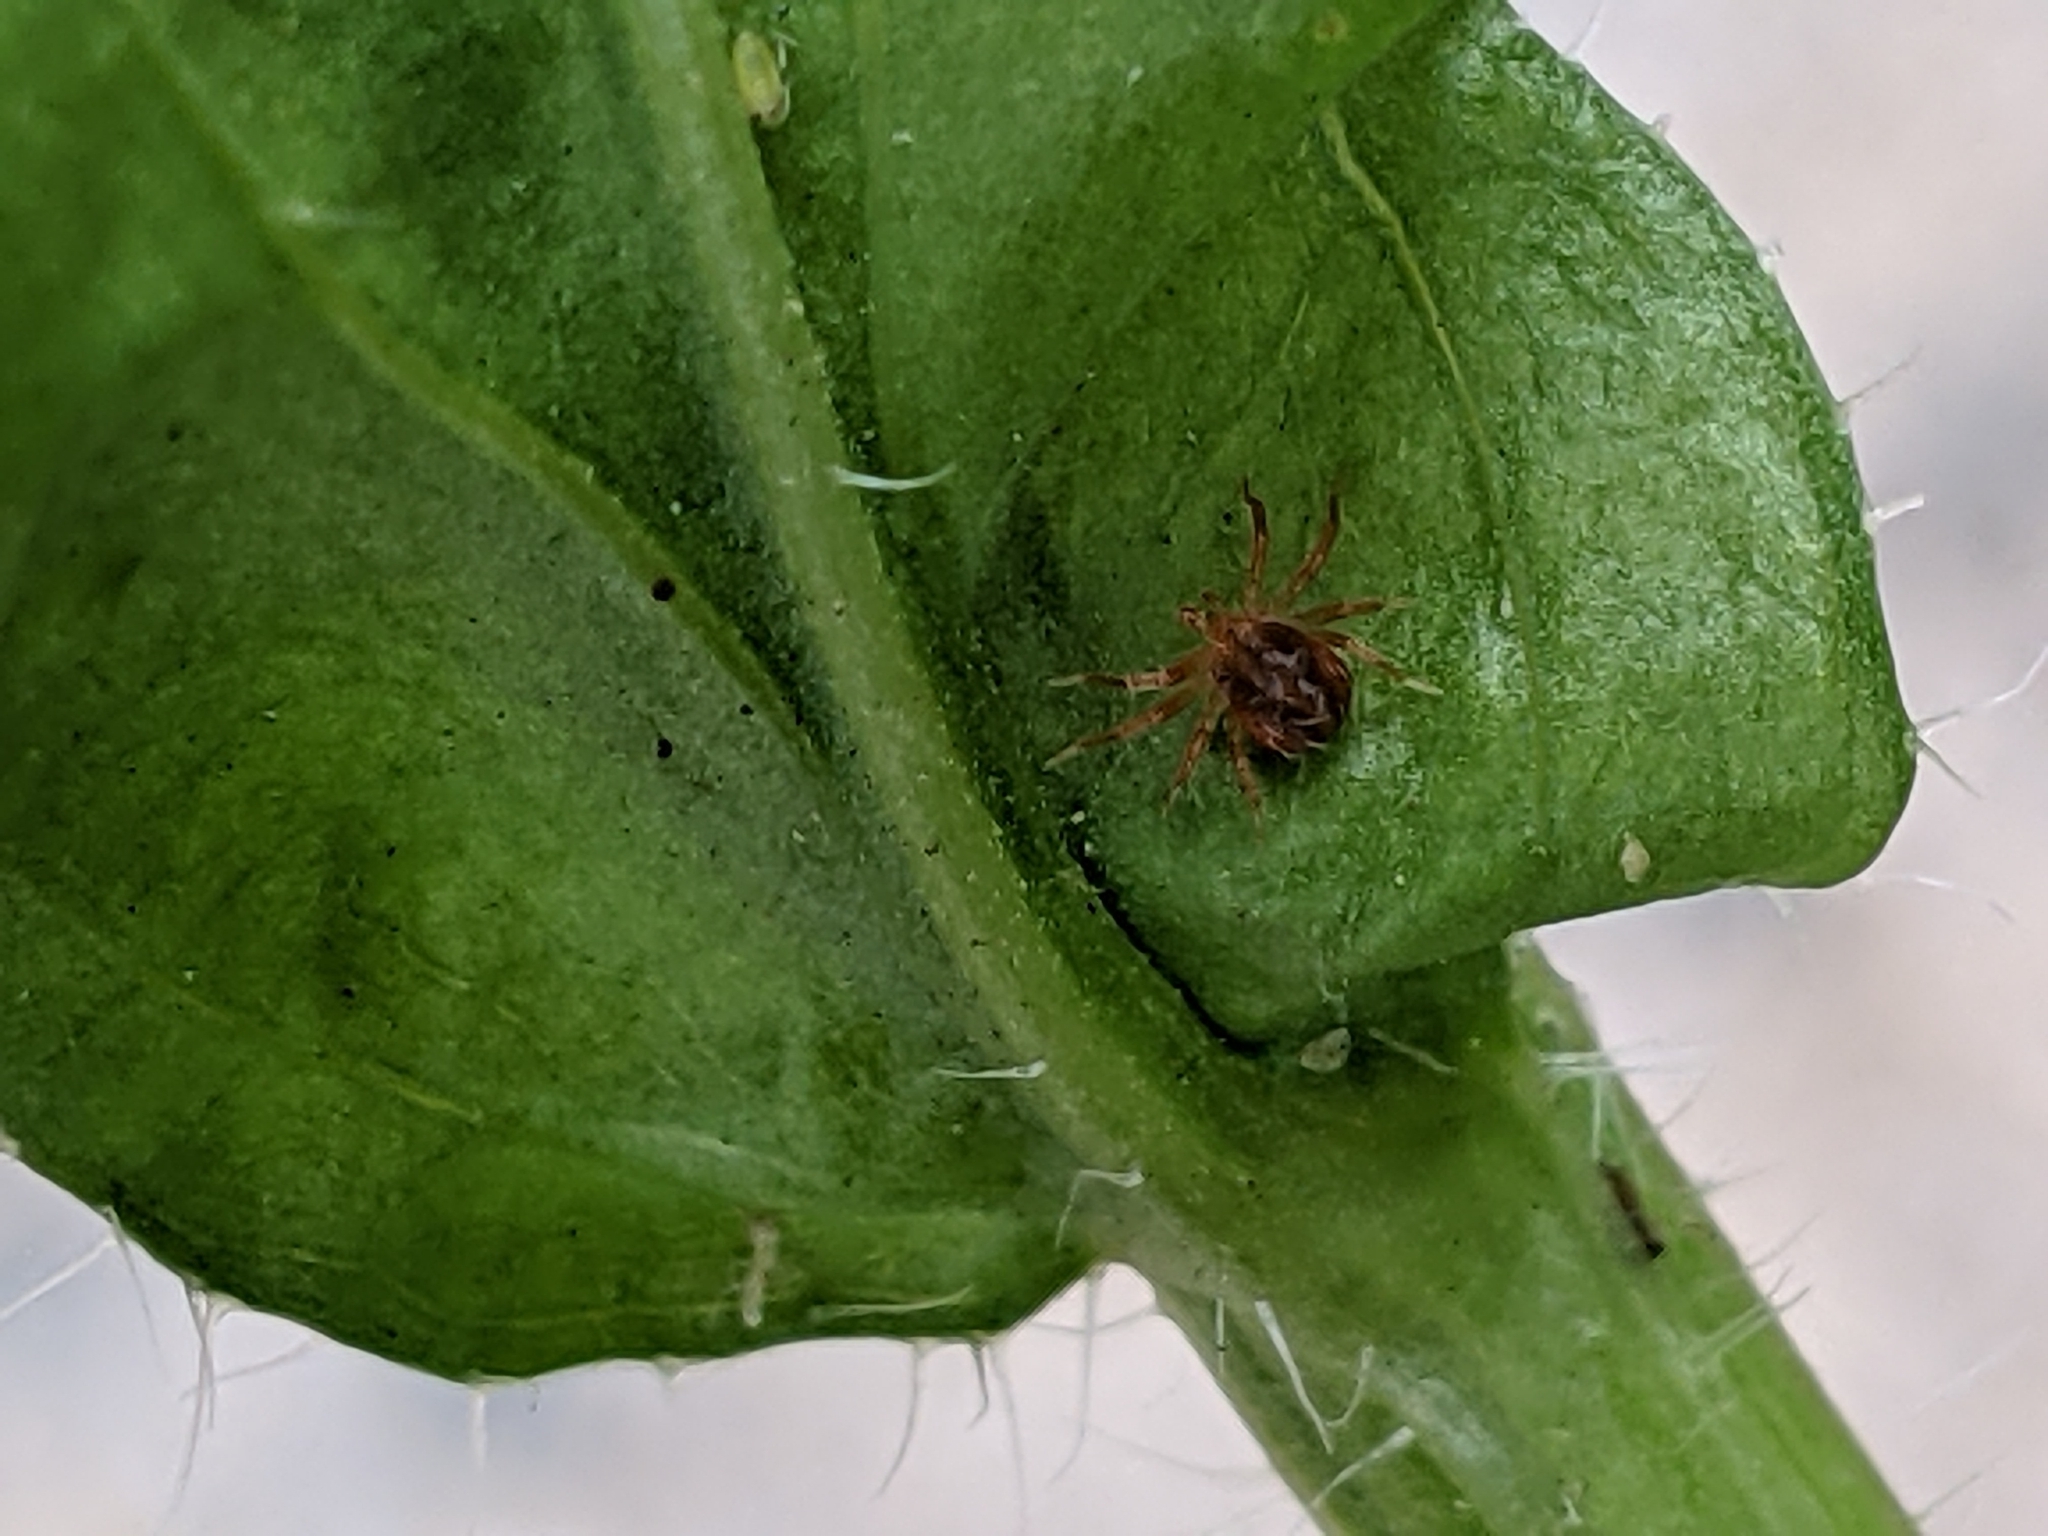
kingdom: Plantae
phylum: Tracheophyta
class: Magnoliopsida
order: Asterales
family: Asteraceae
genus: Erigeron
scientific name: Erigeron annuus
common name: Tall fleabane
